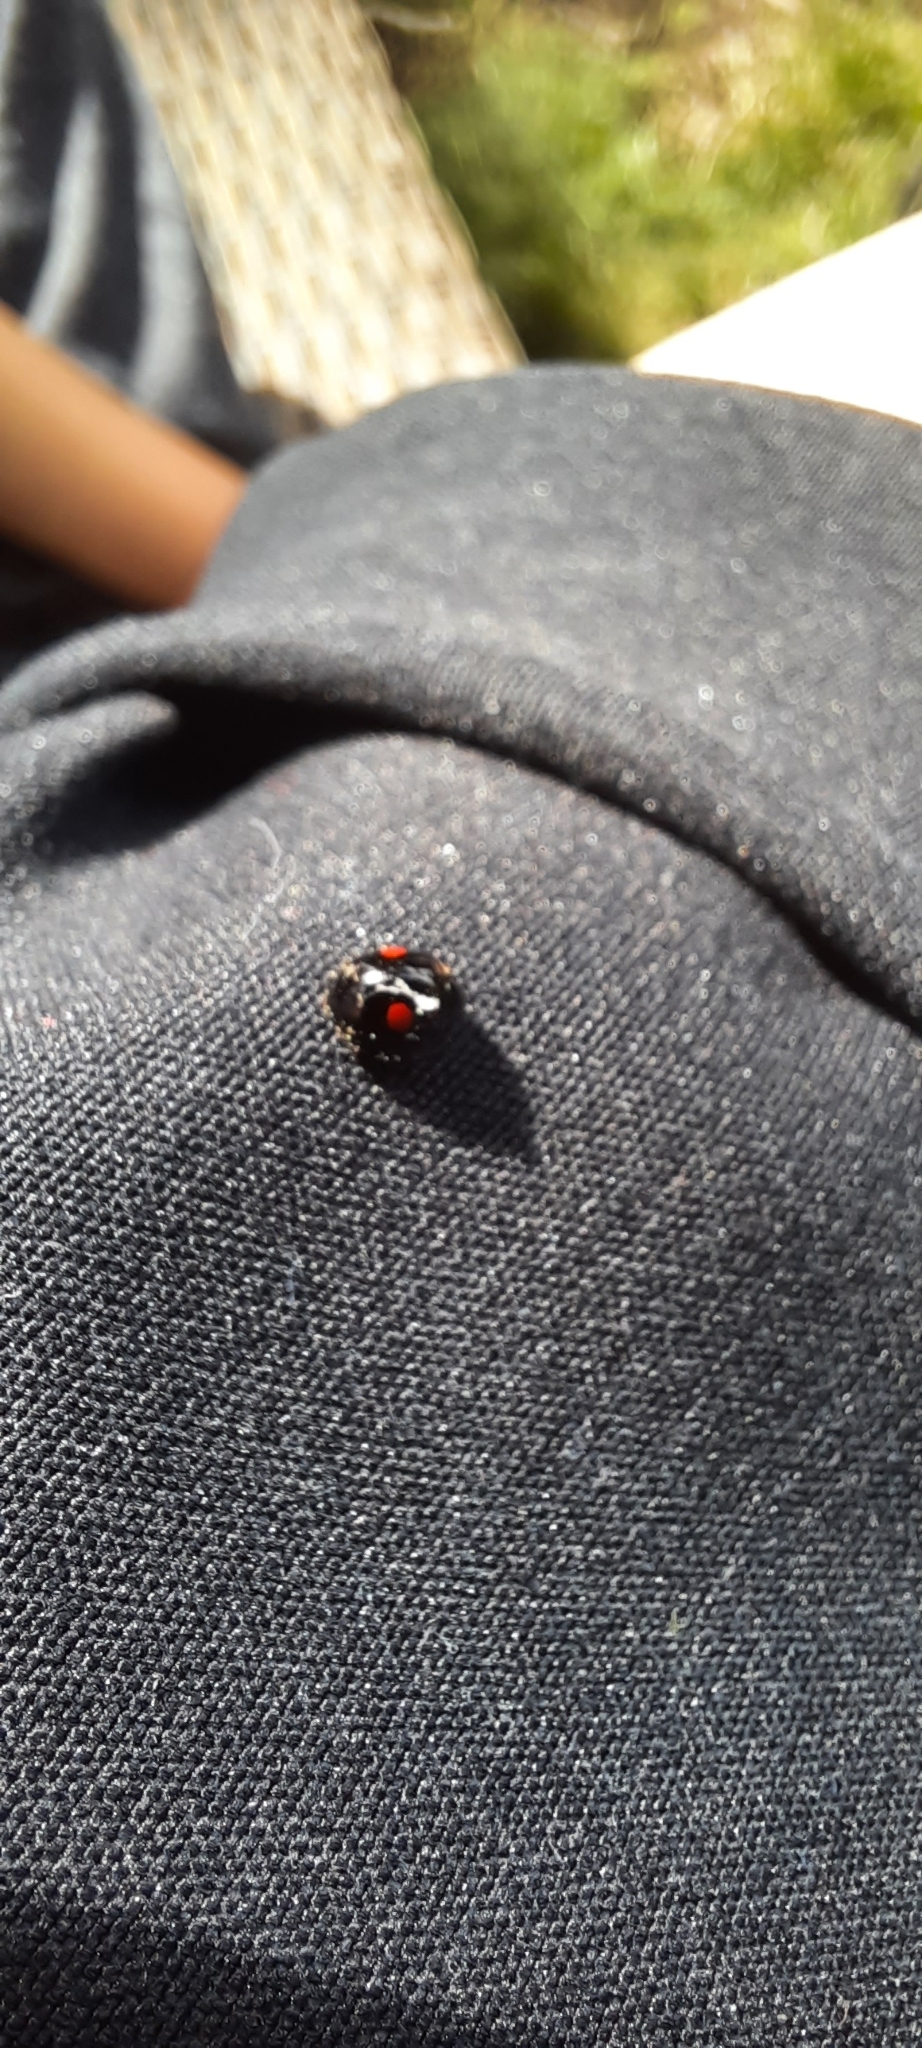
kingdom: Animalia
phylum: Arthropoda
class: Insecta
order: Coleoptera
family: Coccinellidae
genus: Chilocorus
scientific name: Chilocorus stigma
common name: Twicestabbed lady beetle
